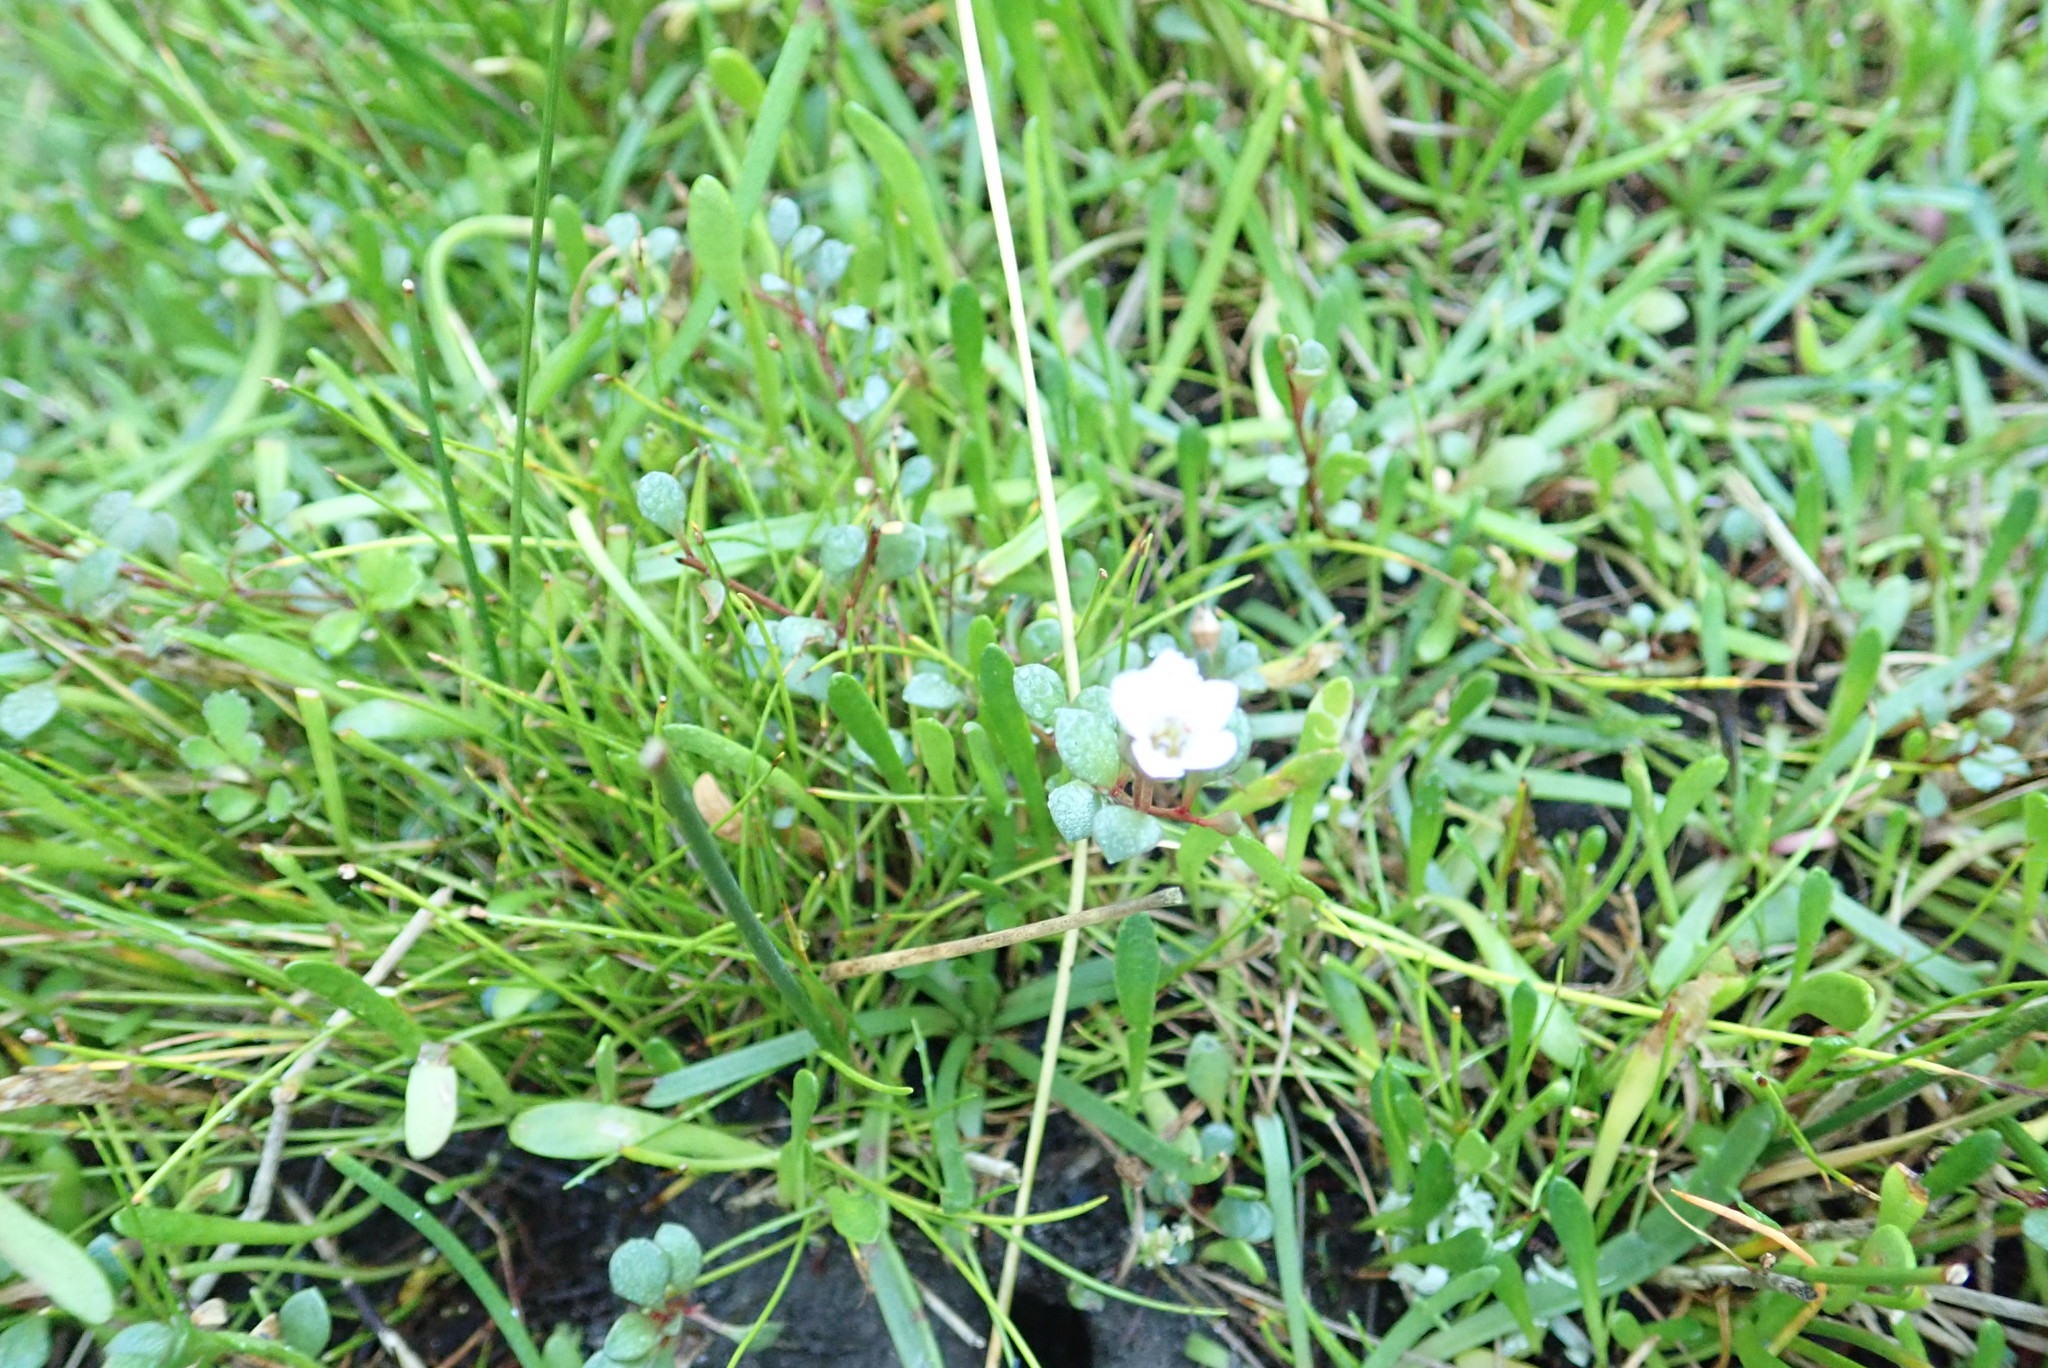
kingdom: Plantae
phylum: Tracheophyta
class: Magnoliopsida
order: Ericales
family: Primulaceae
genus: Samolus
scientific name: Samolus repens
